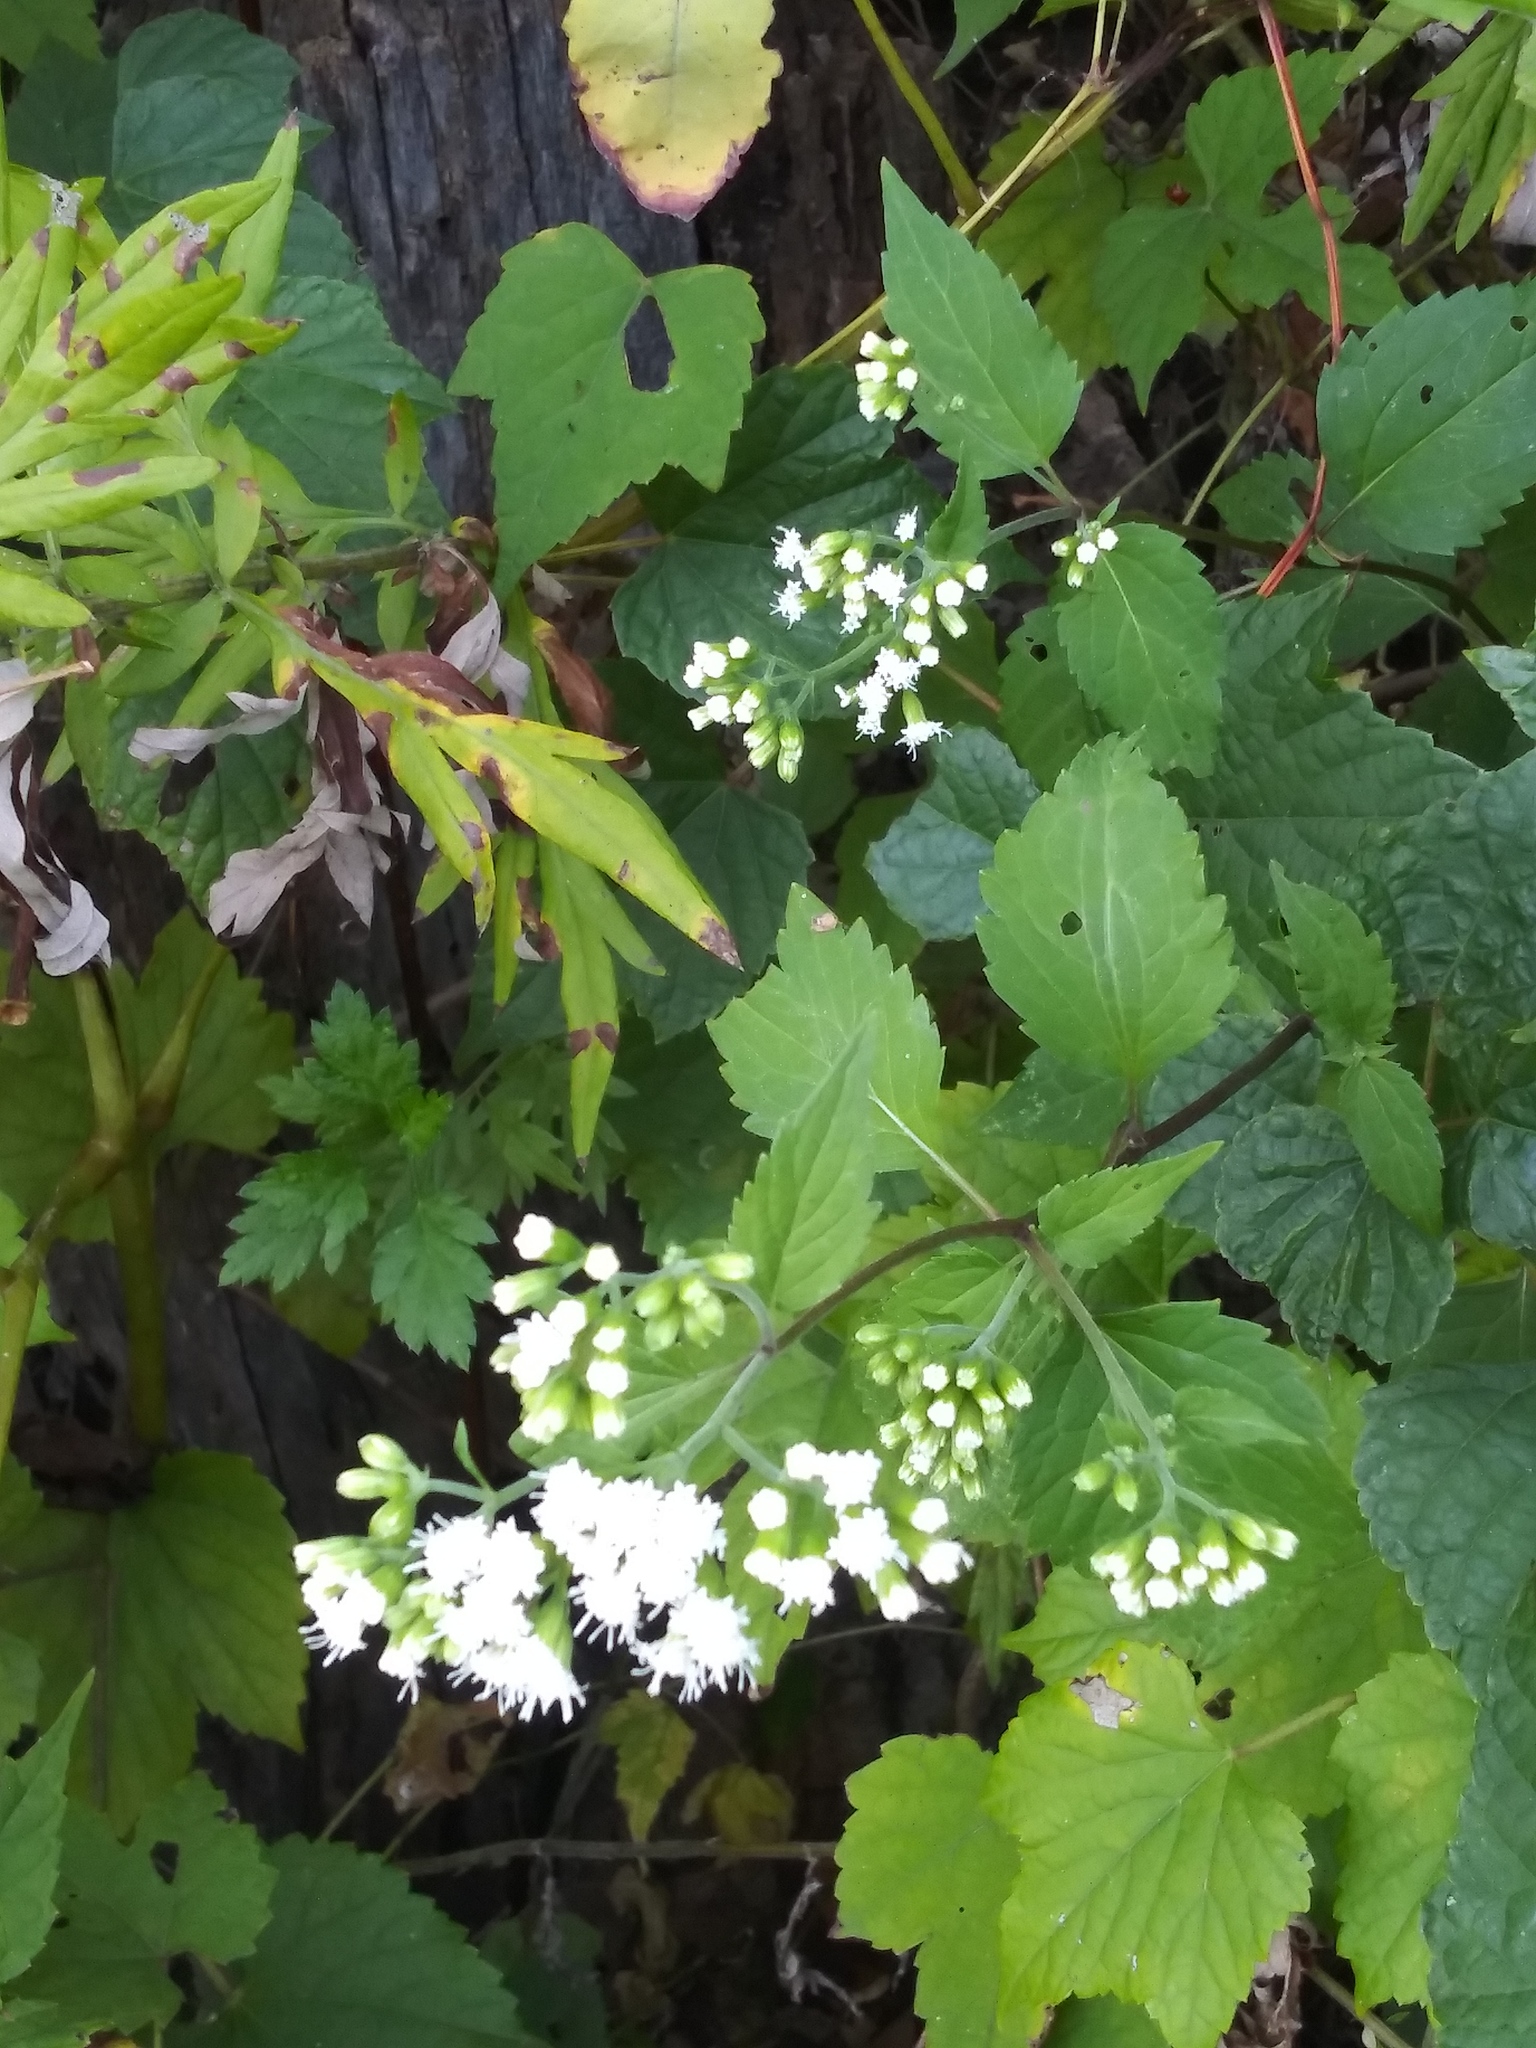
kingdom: Plantae
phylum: Tracheophyta
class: Magnoliopsida
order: Asterales
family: Asteraceae
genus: Ageratina
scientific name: Ageratina altissima
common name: White snakeroot
